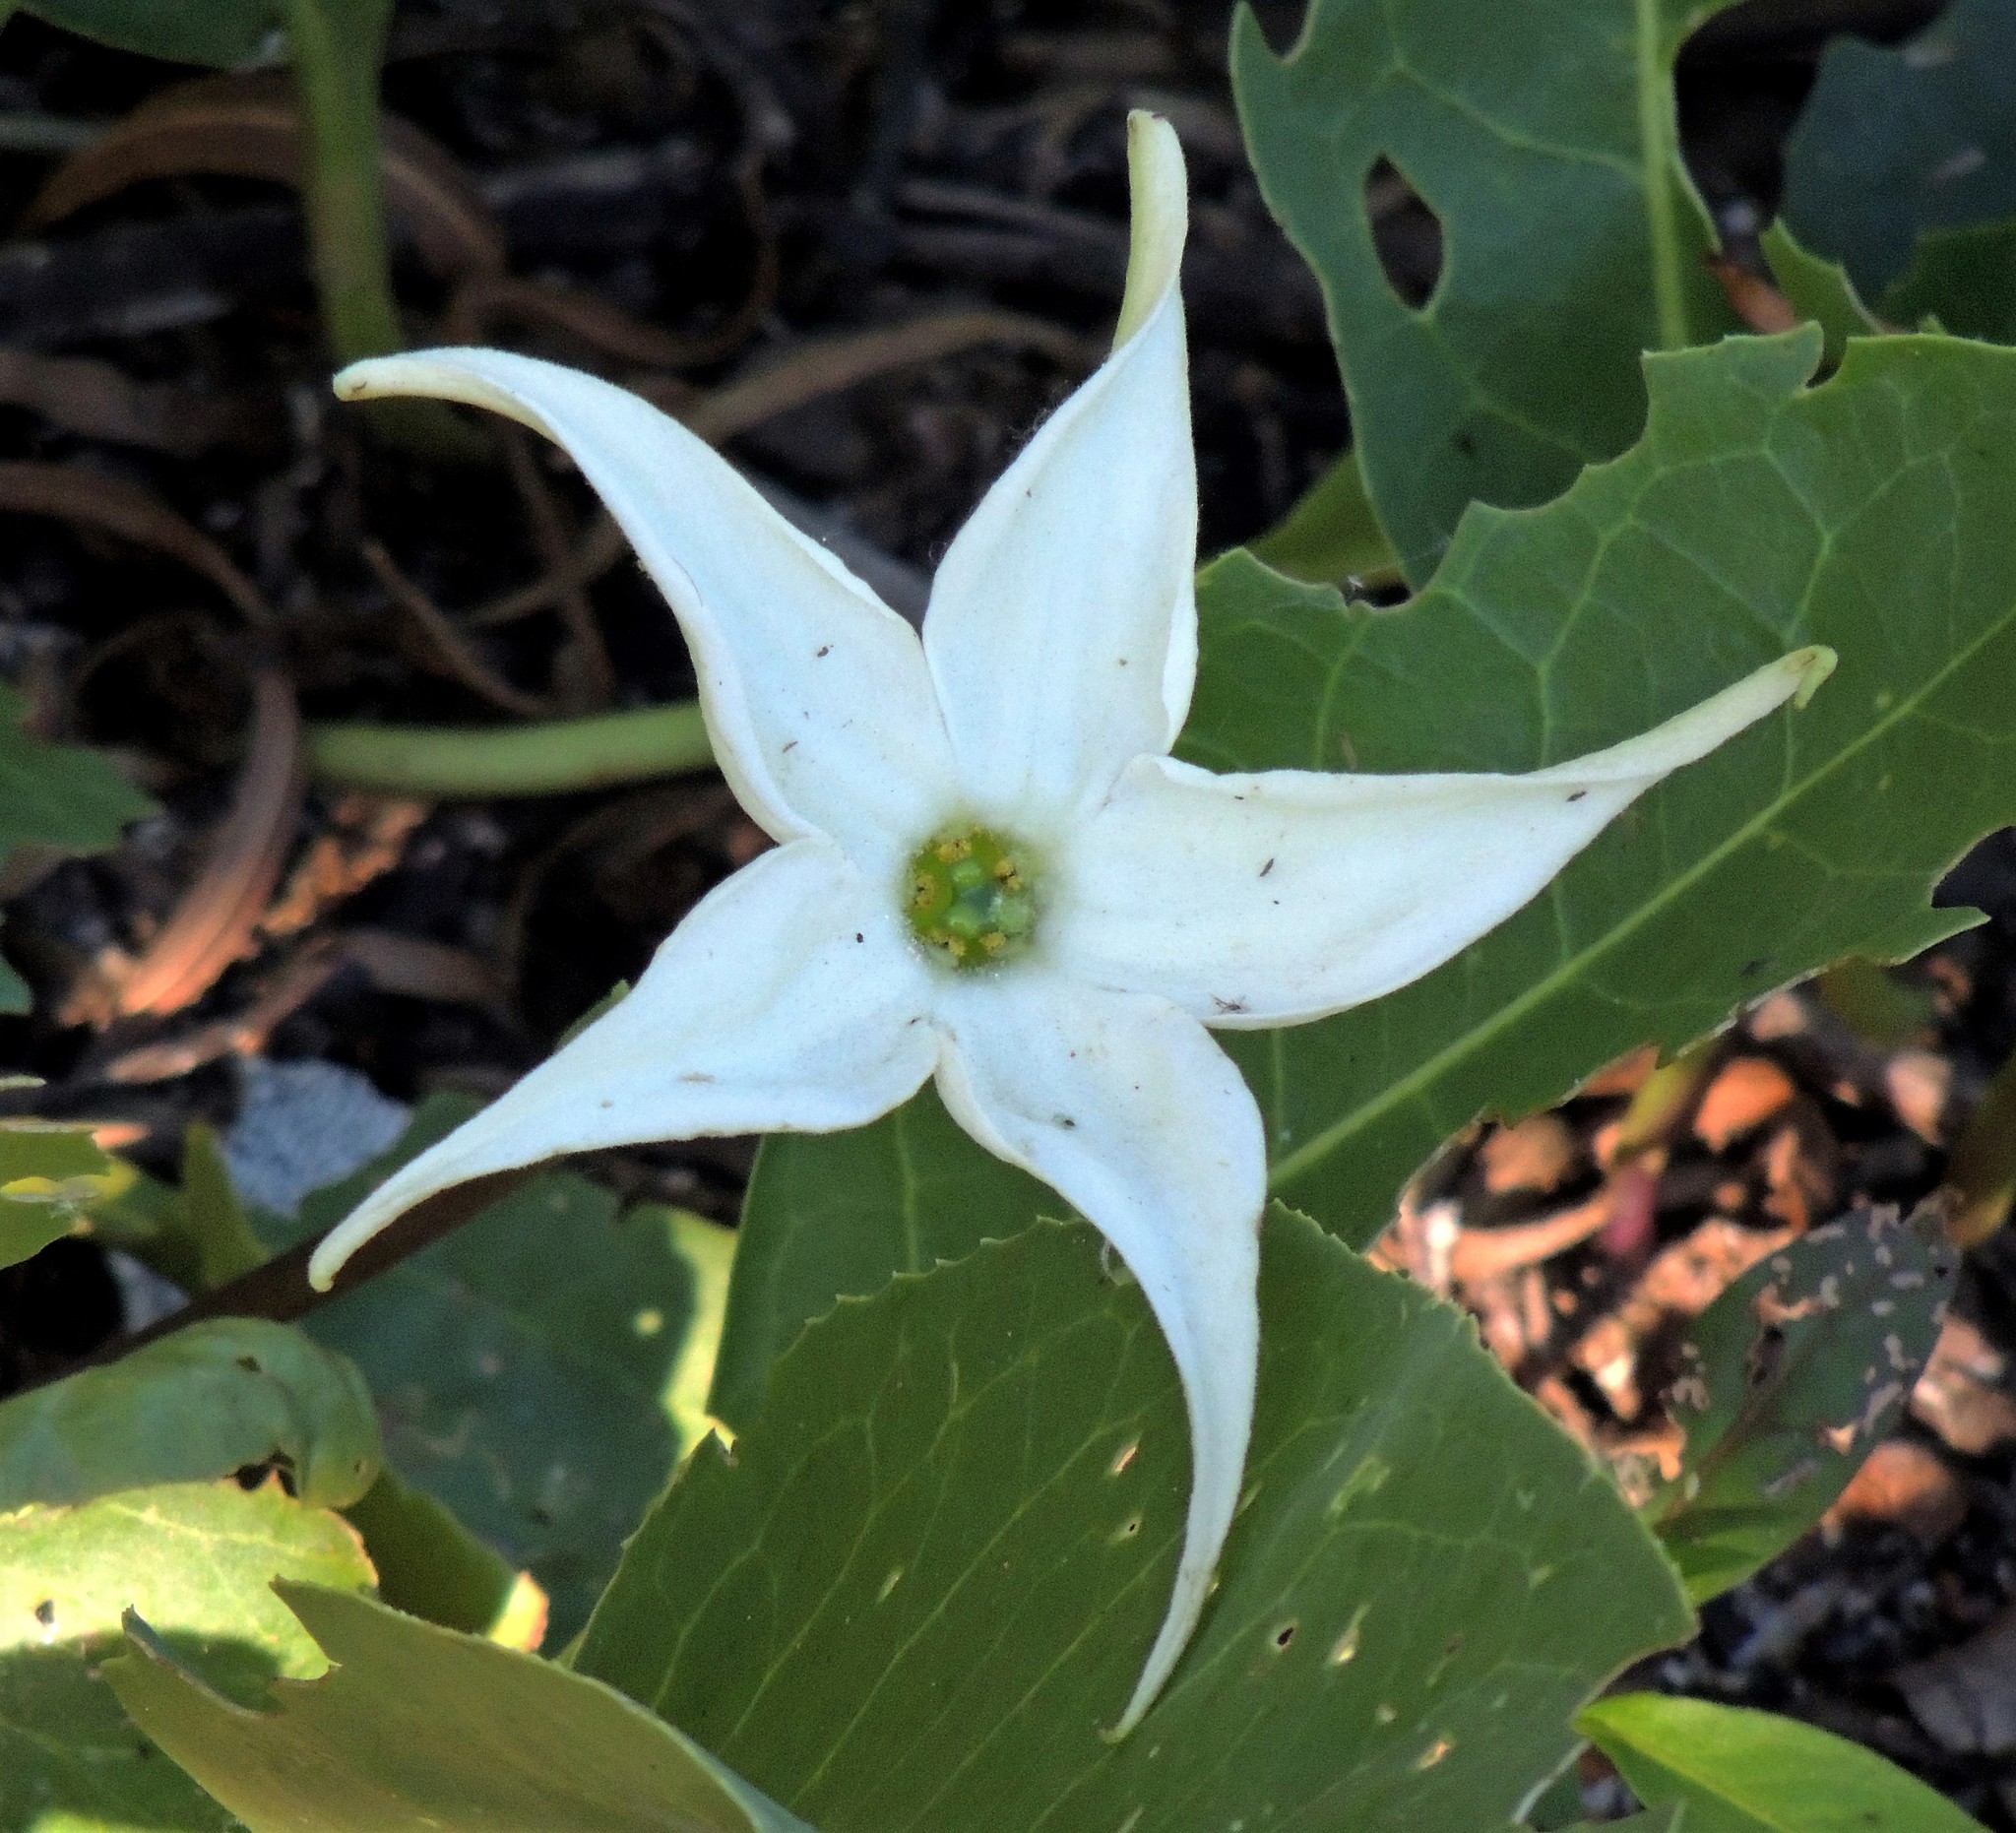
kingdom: Plantae
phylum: Tracheophyta
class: Magnoliopsida
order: Solanales
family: Solanaceae
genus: Jaborosa
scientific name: Jaborosa integrifolia
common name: Springblossom
